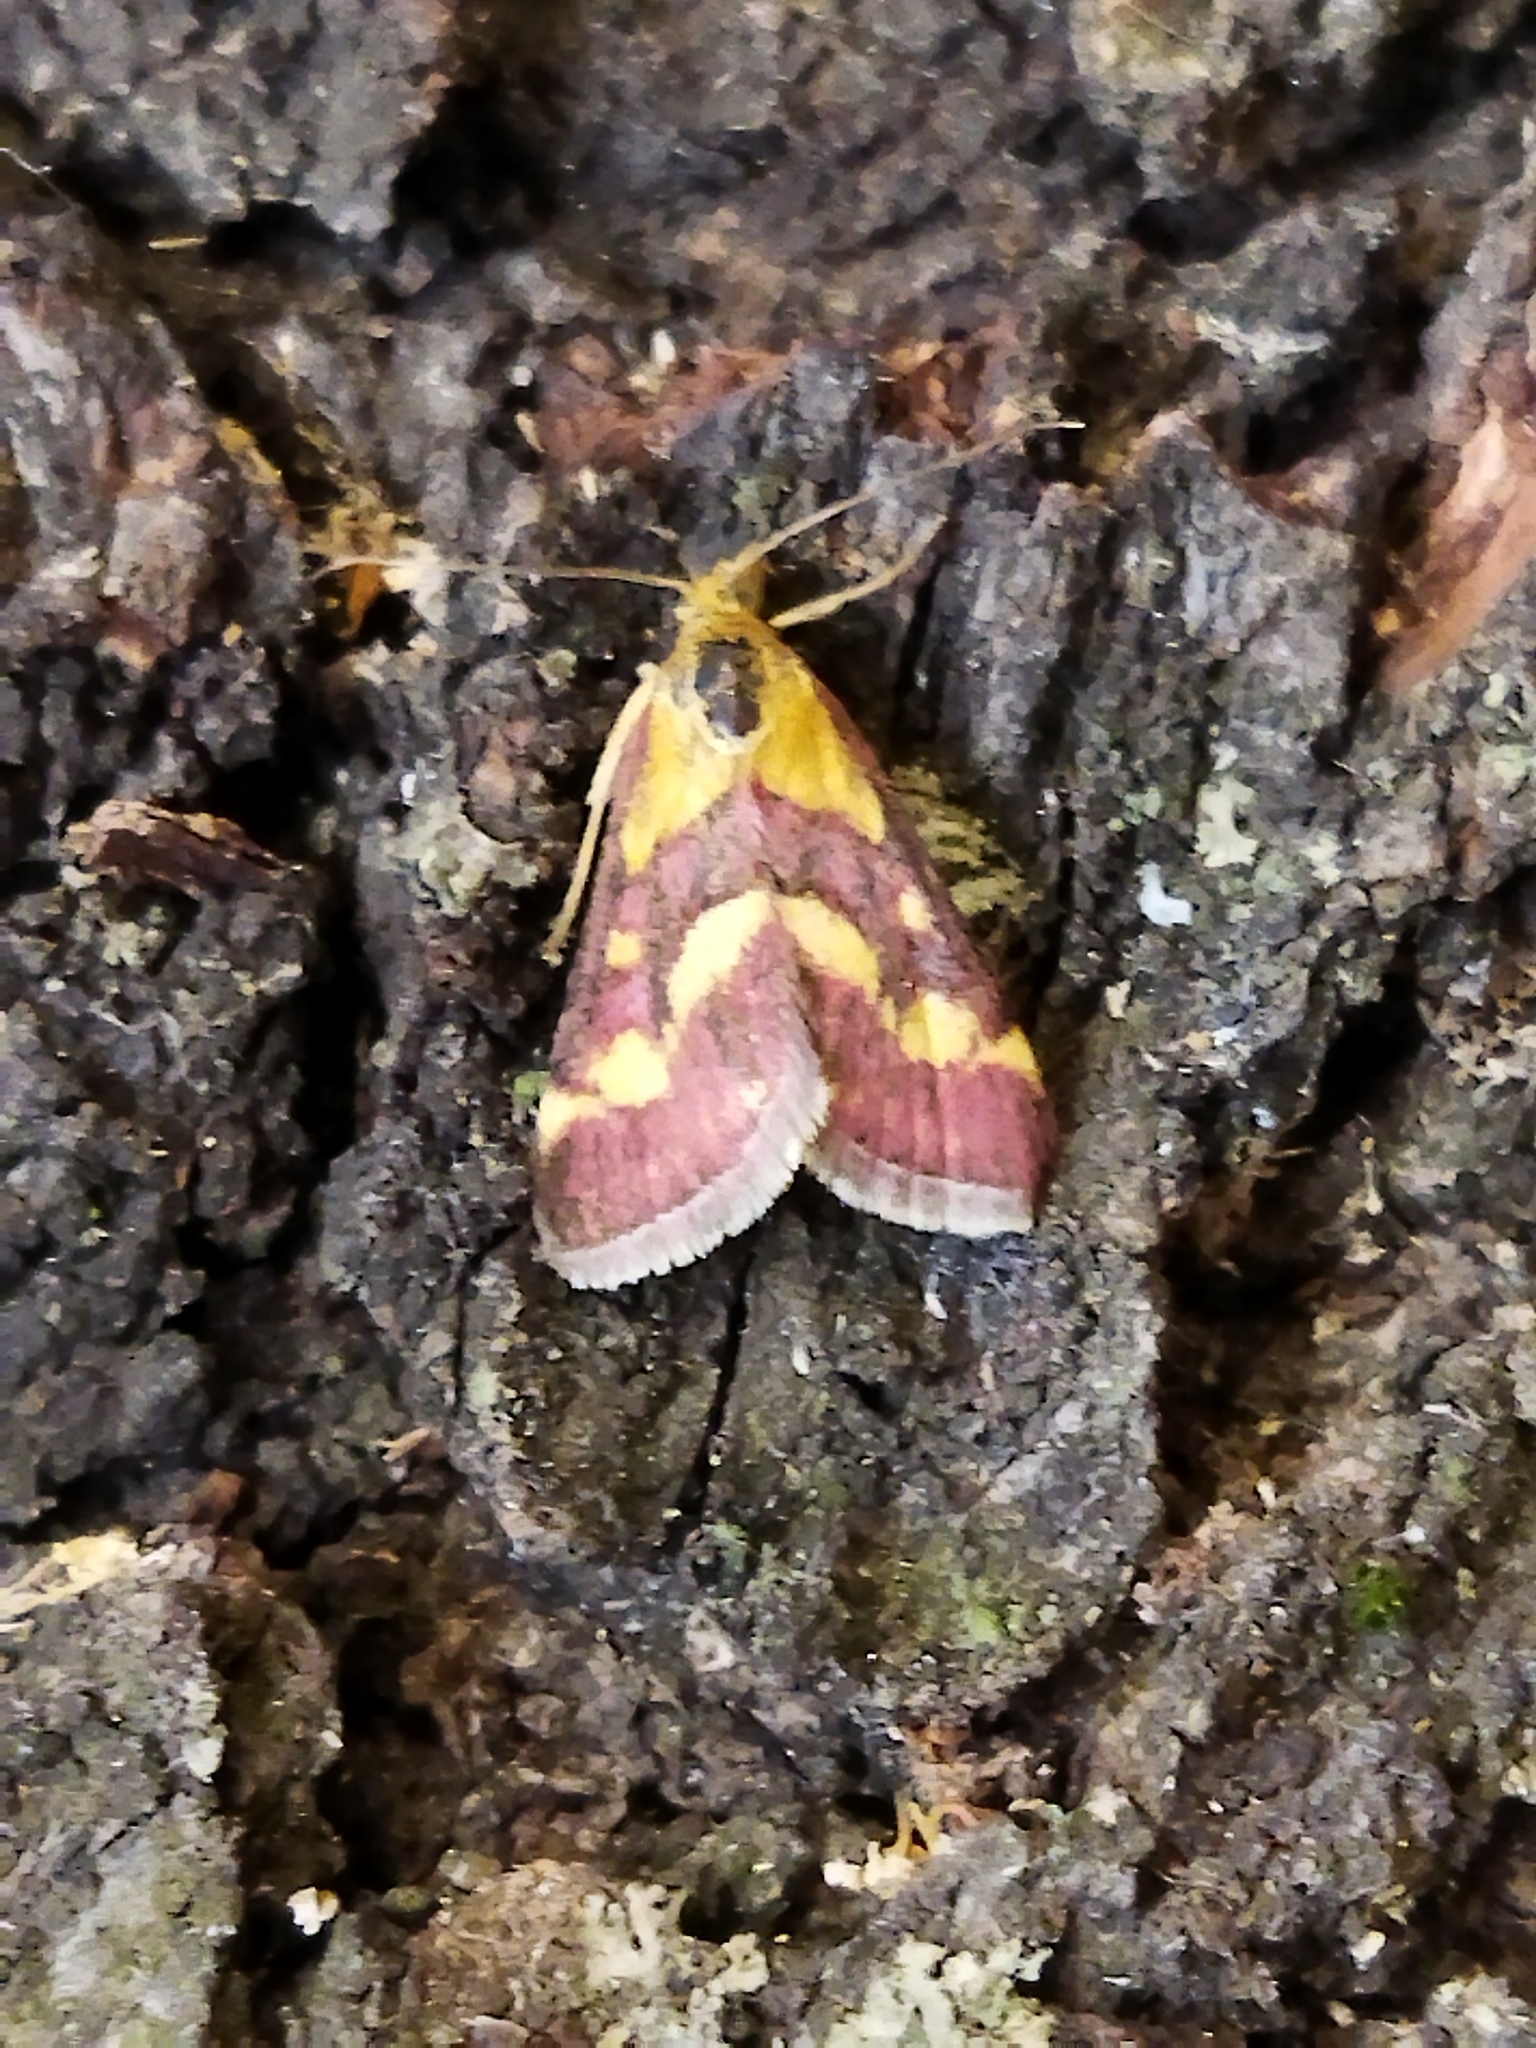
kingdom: Animalia
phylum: Arthropoda
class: Insecta
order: Lepidoptera
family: Crambidae
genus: Pyrausta
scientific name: Pyrausta purpuralis
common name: Common purple & gold
